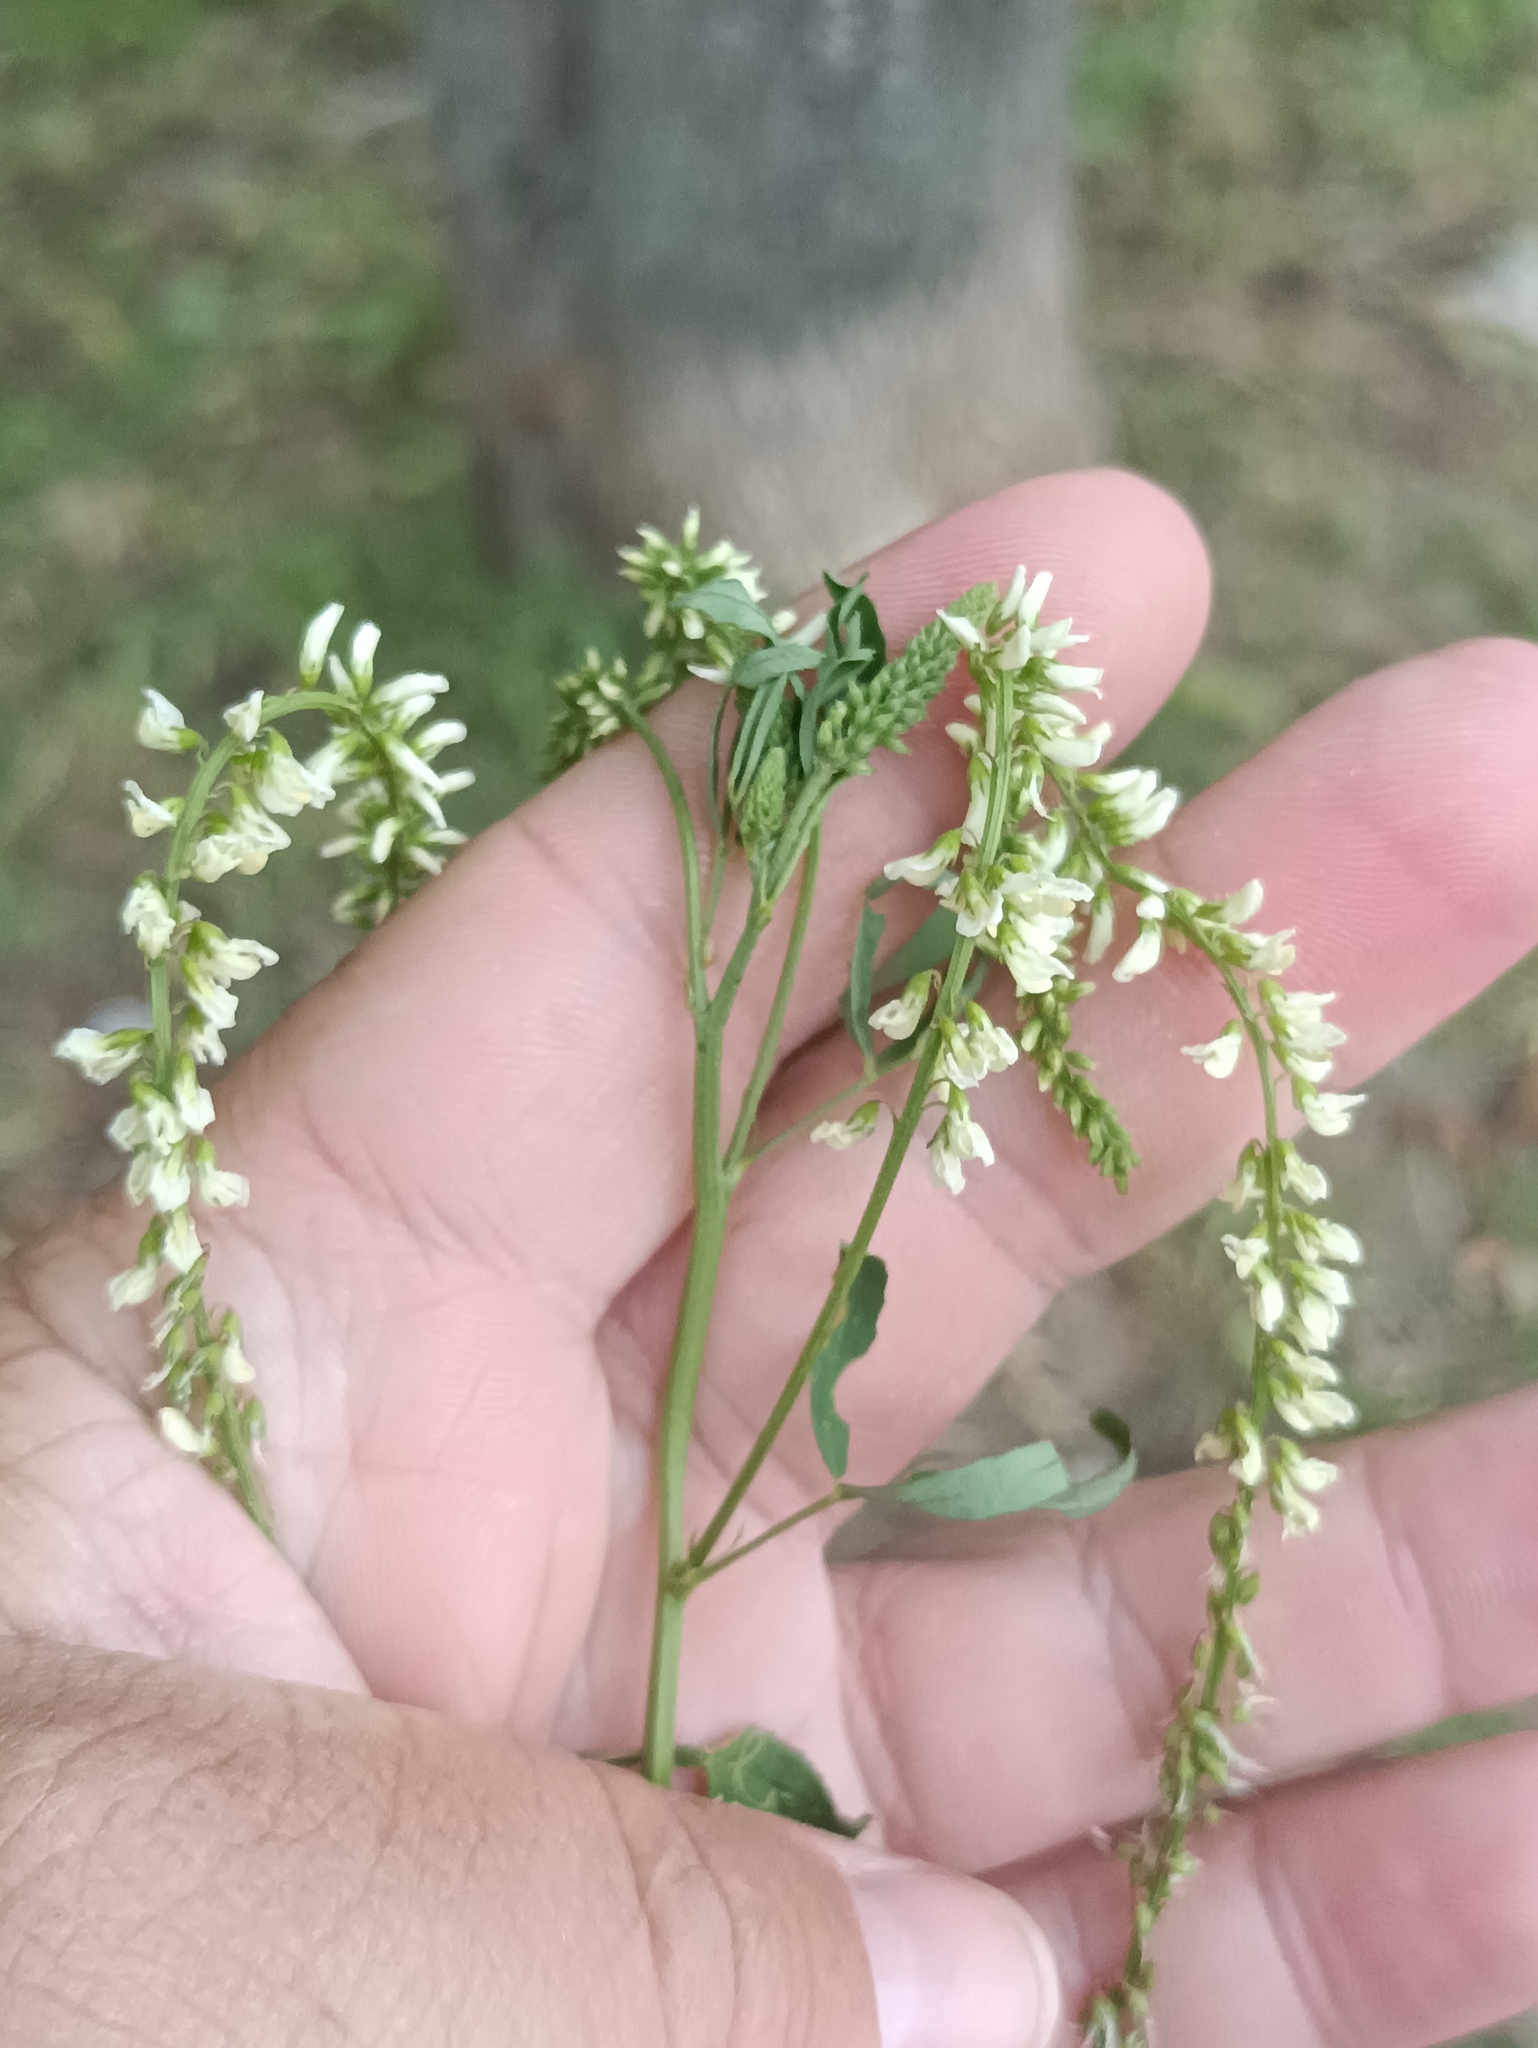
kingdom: Plantae
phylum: Tracheophyta
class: Magnoliopsida
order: Fabales
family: Fabaceae
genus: Melilotus
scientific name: Melilotus albus
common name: White melilot
